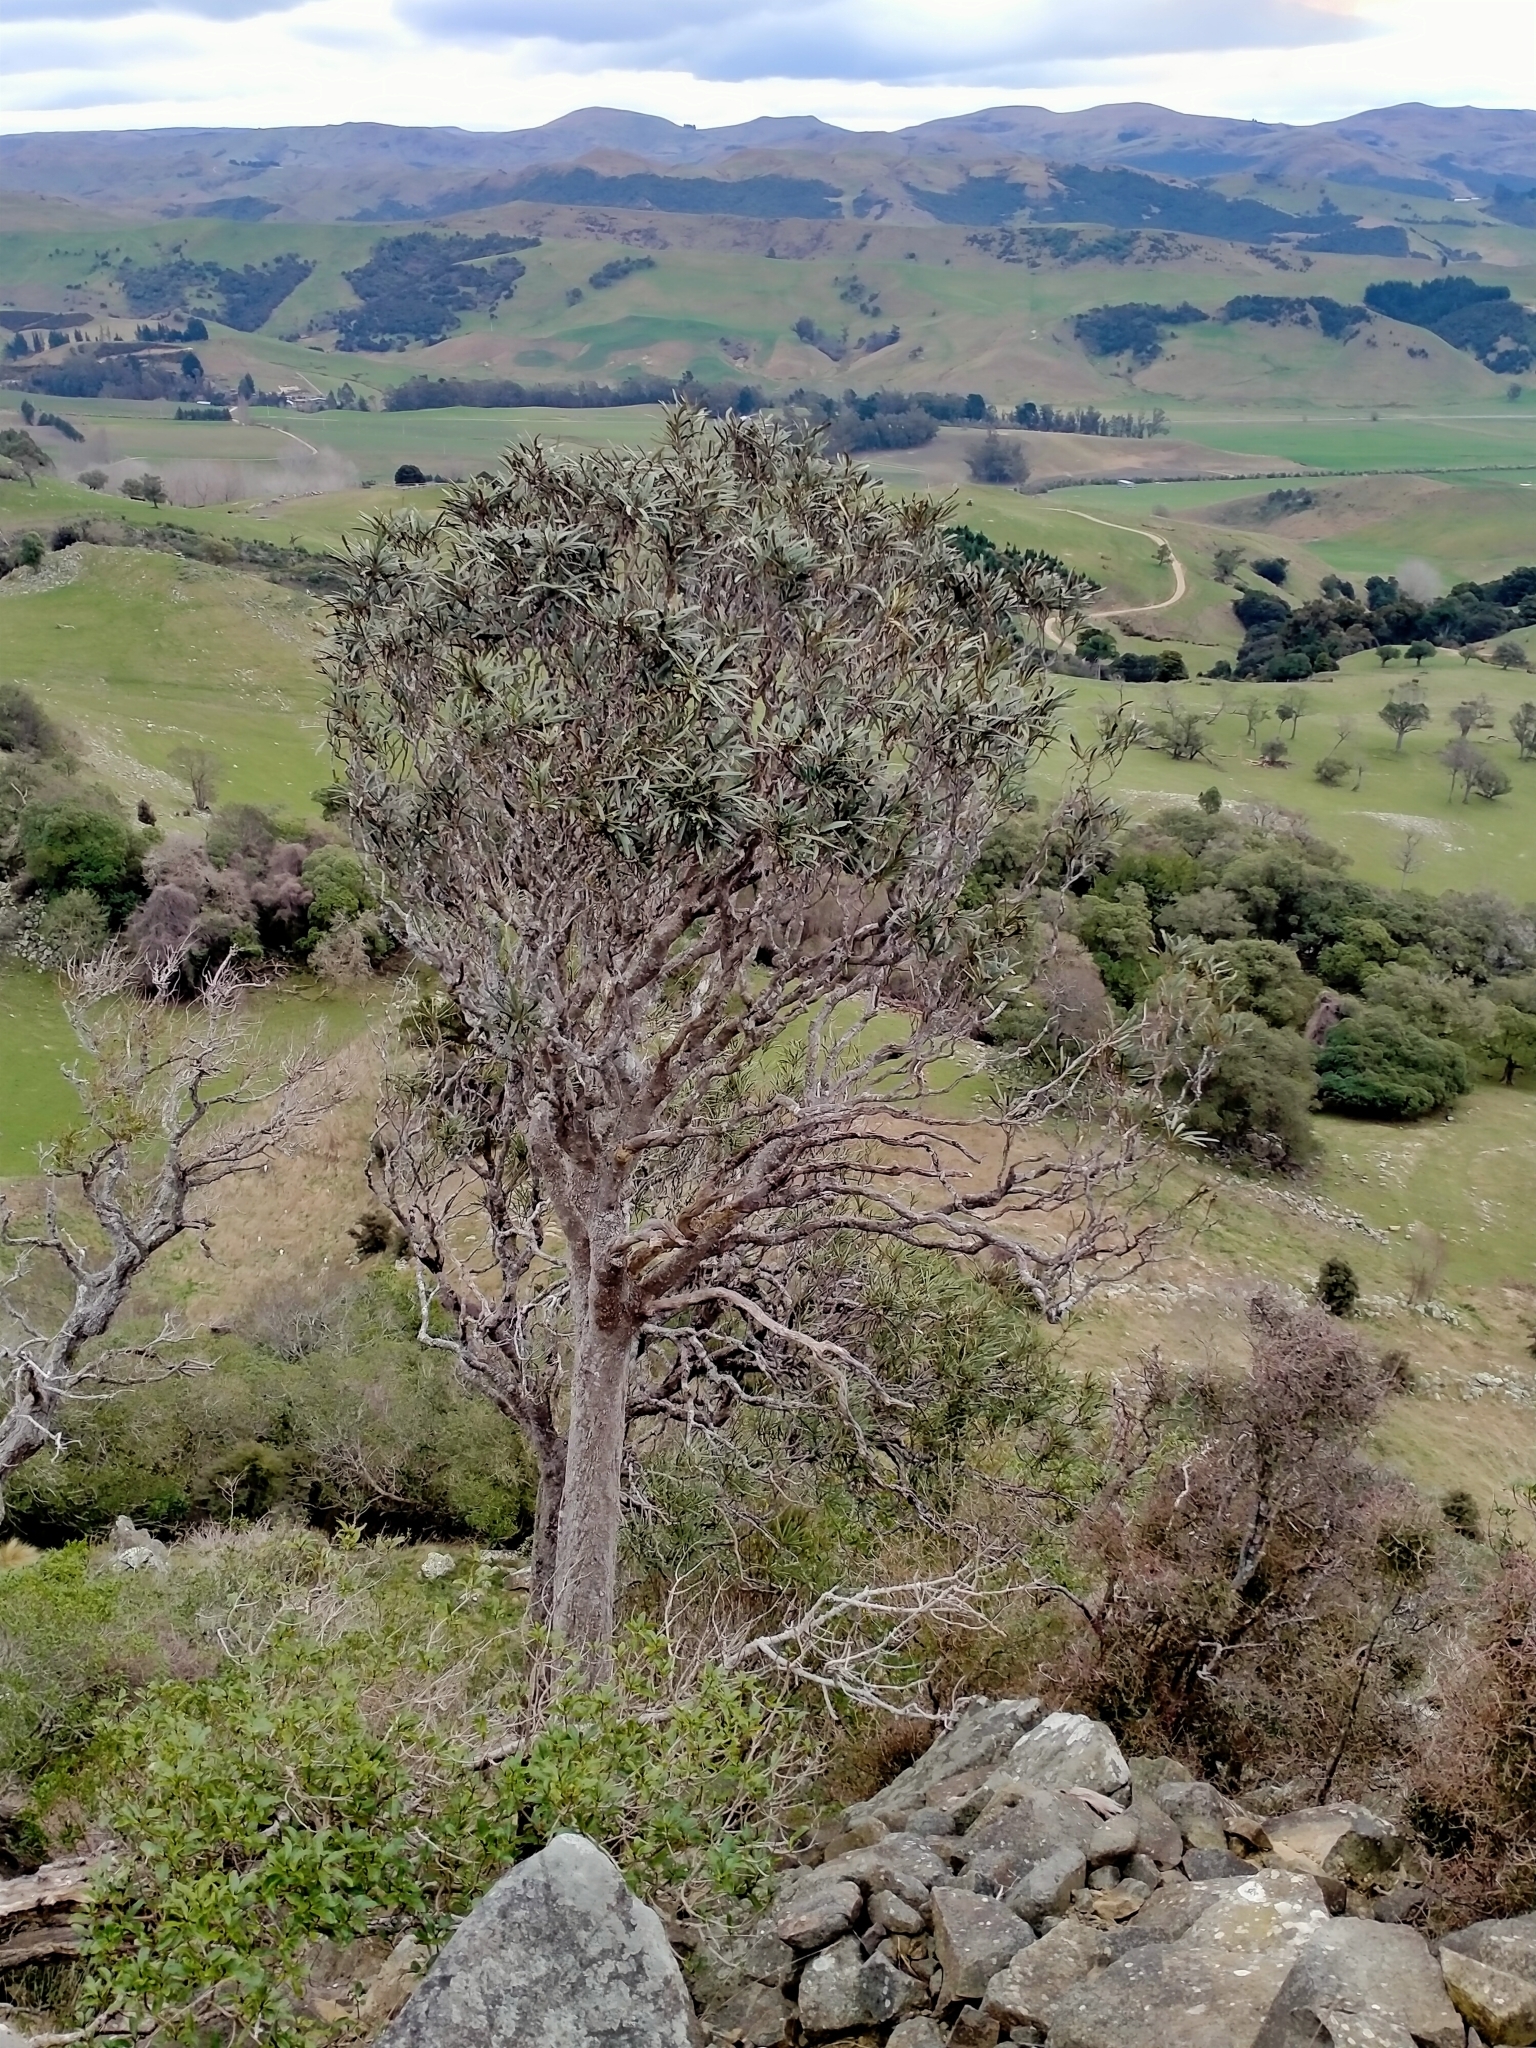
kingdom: Plantae
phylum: Tracheophyta
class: Magnoliopsida
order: Apiales
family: Araliaceae
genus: Pseudopanax
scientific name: Pseudopanax ferox
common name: Fierce lancewood
